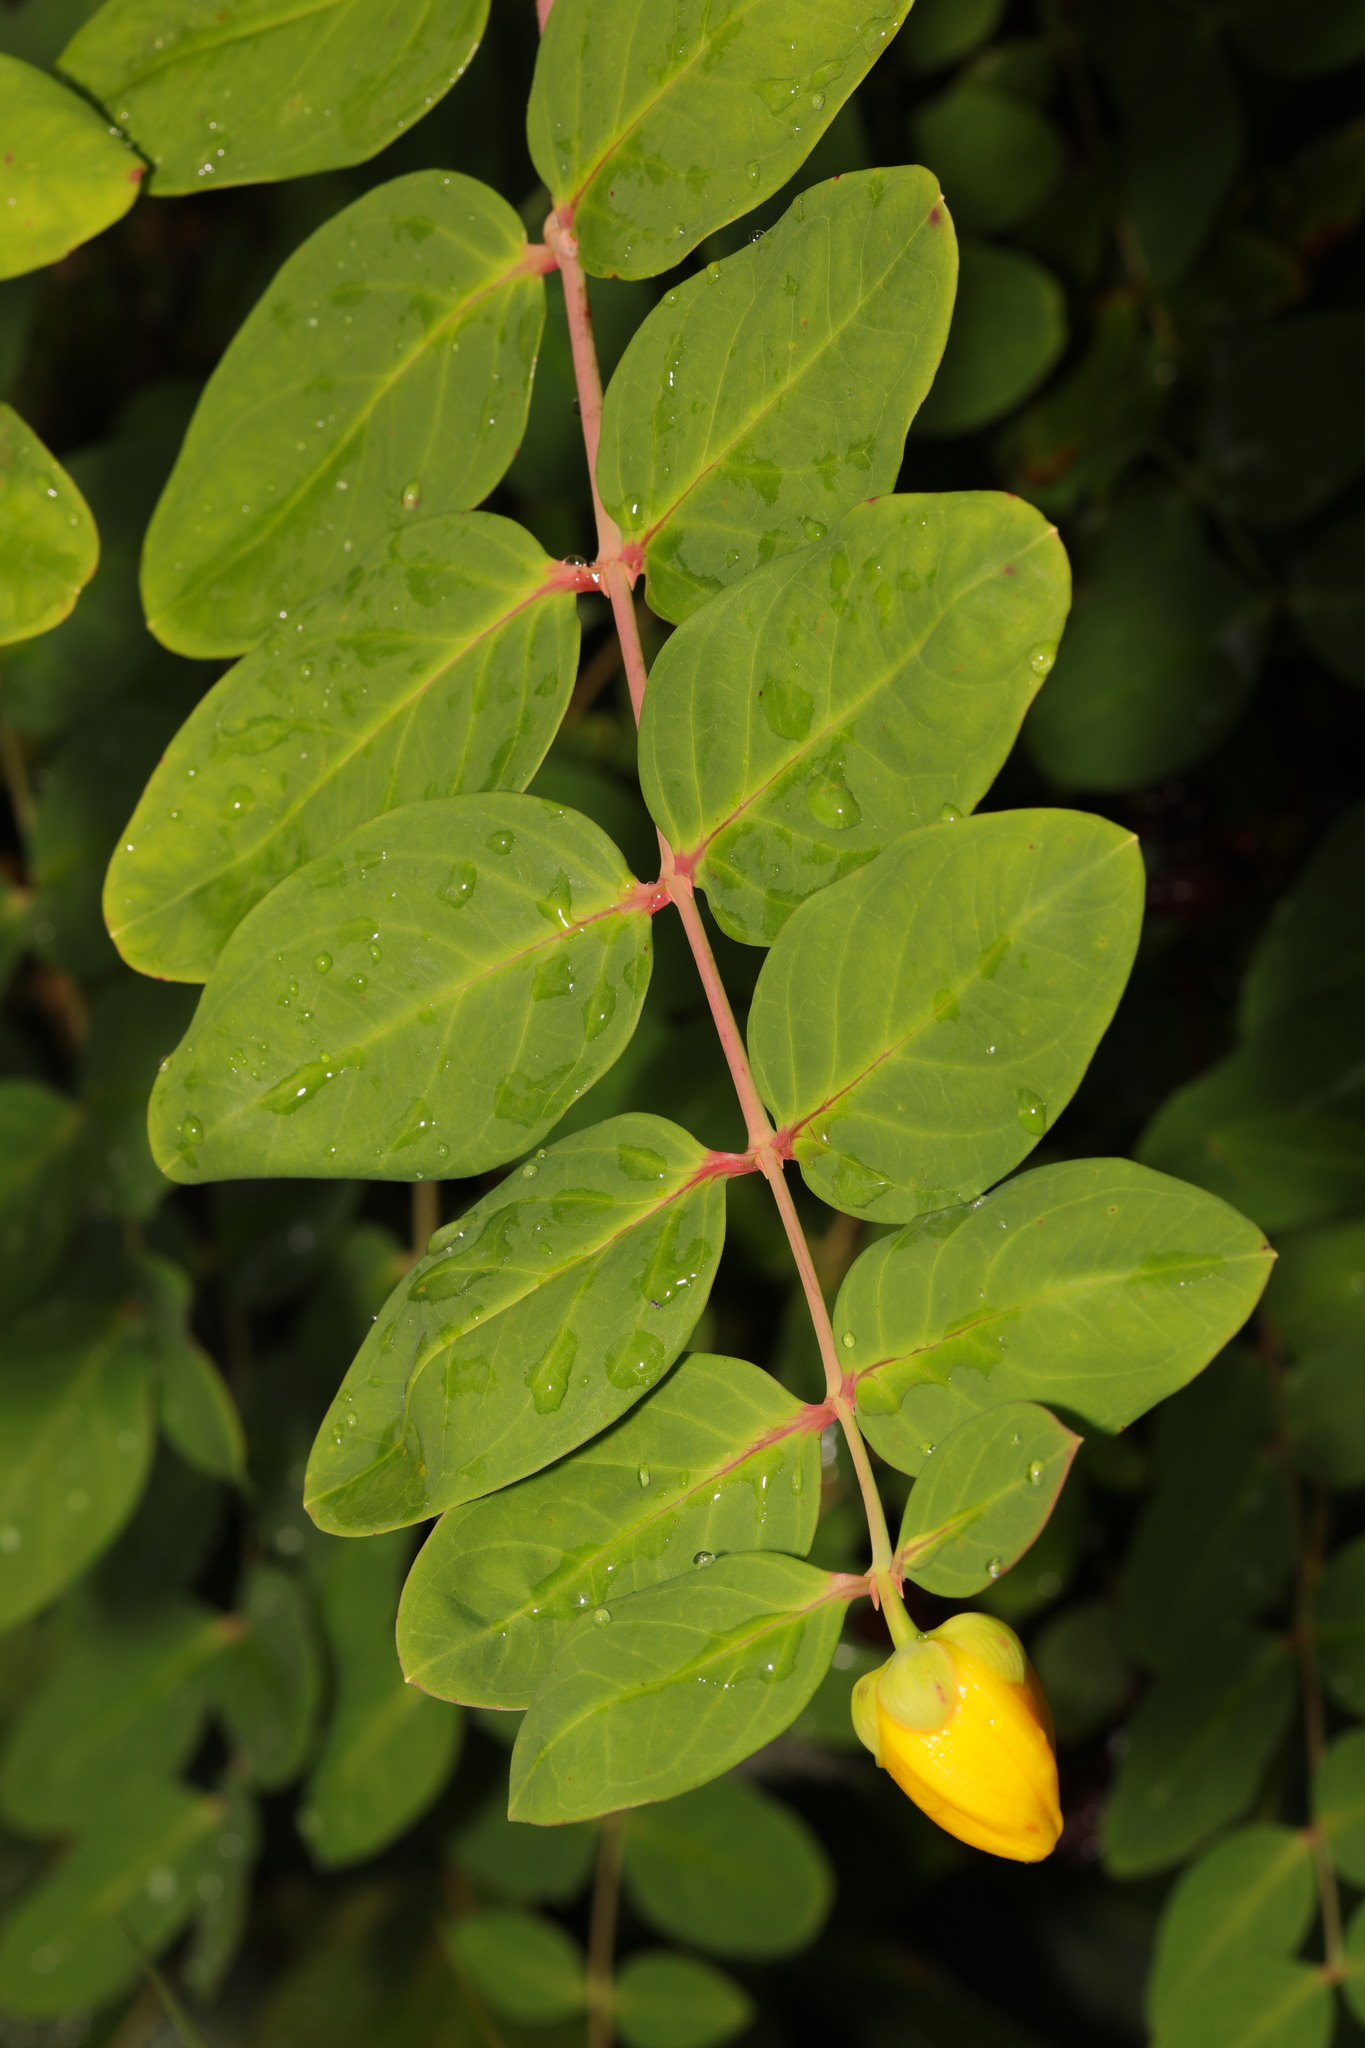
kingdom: Plantae
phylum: Tracheophyta
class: Magnoliopsida
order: Malpighiales
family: Hypericaceae
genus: Hypericum
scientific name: Hypericum calycinum
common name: Rose-of-sharon
